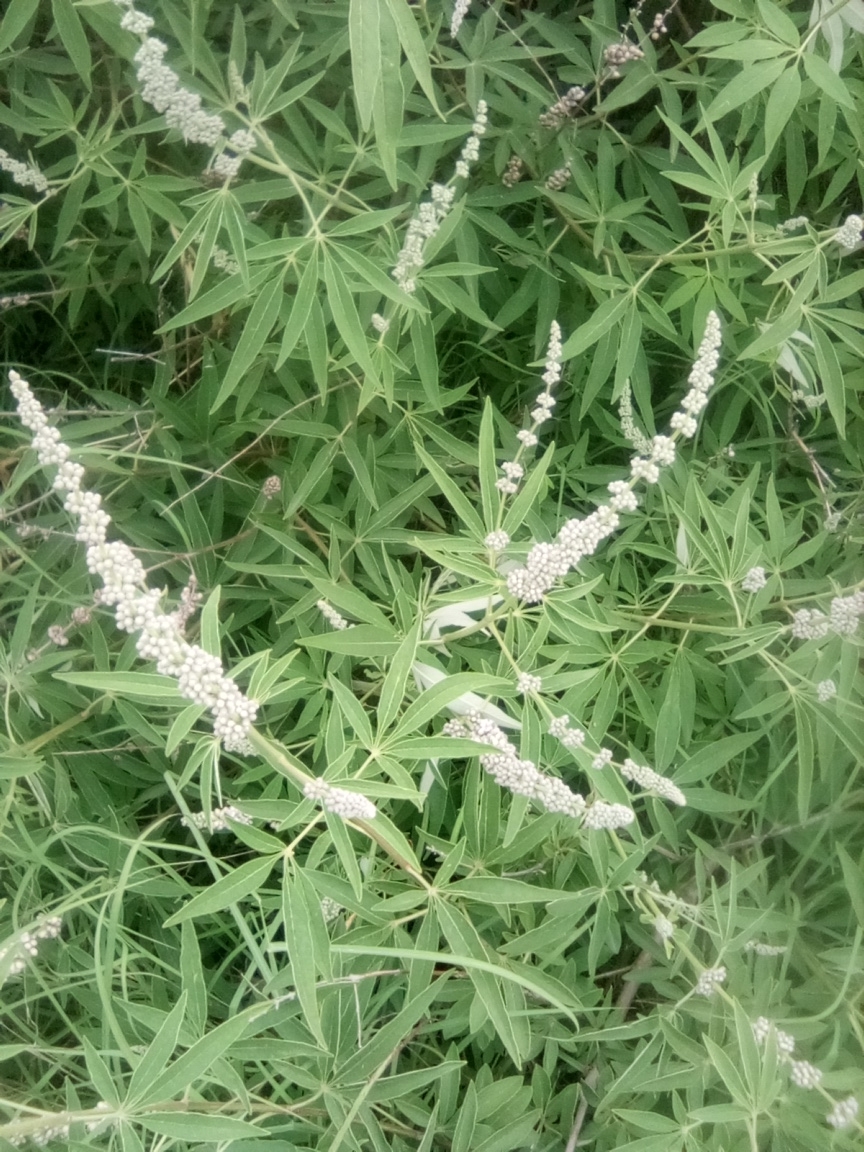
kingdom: Plantae
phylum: Tracheophyta
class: Magnoliopsida
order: Lamiales
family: Lamiaceae
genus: Vitex
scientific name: Vitex agnus-castus
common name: Chasteberry
